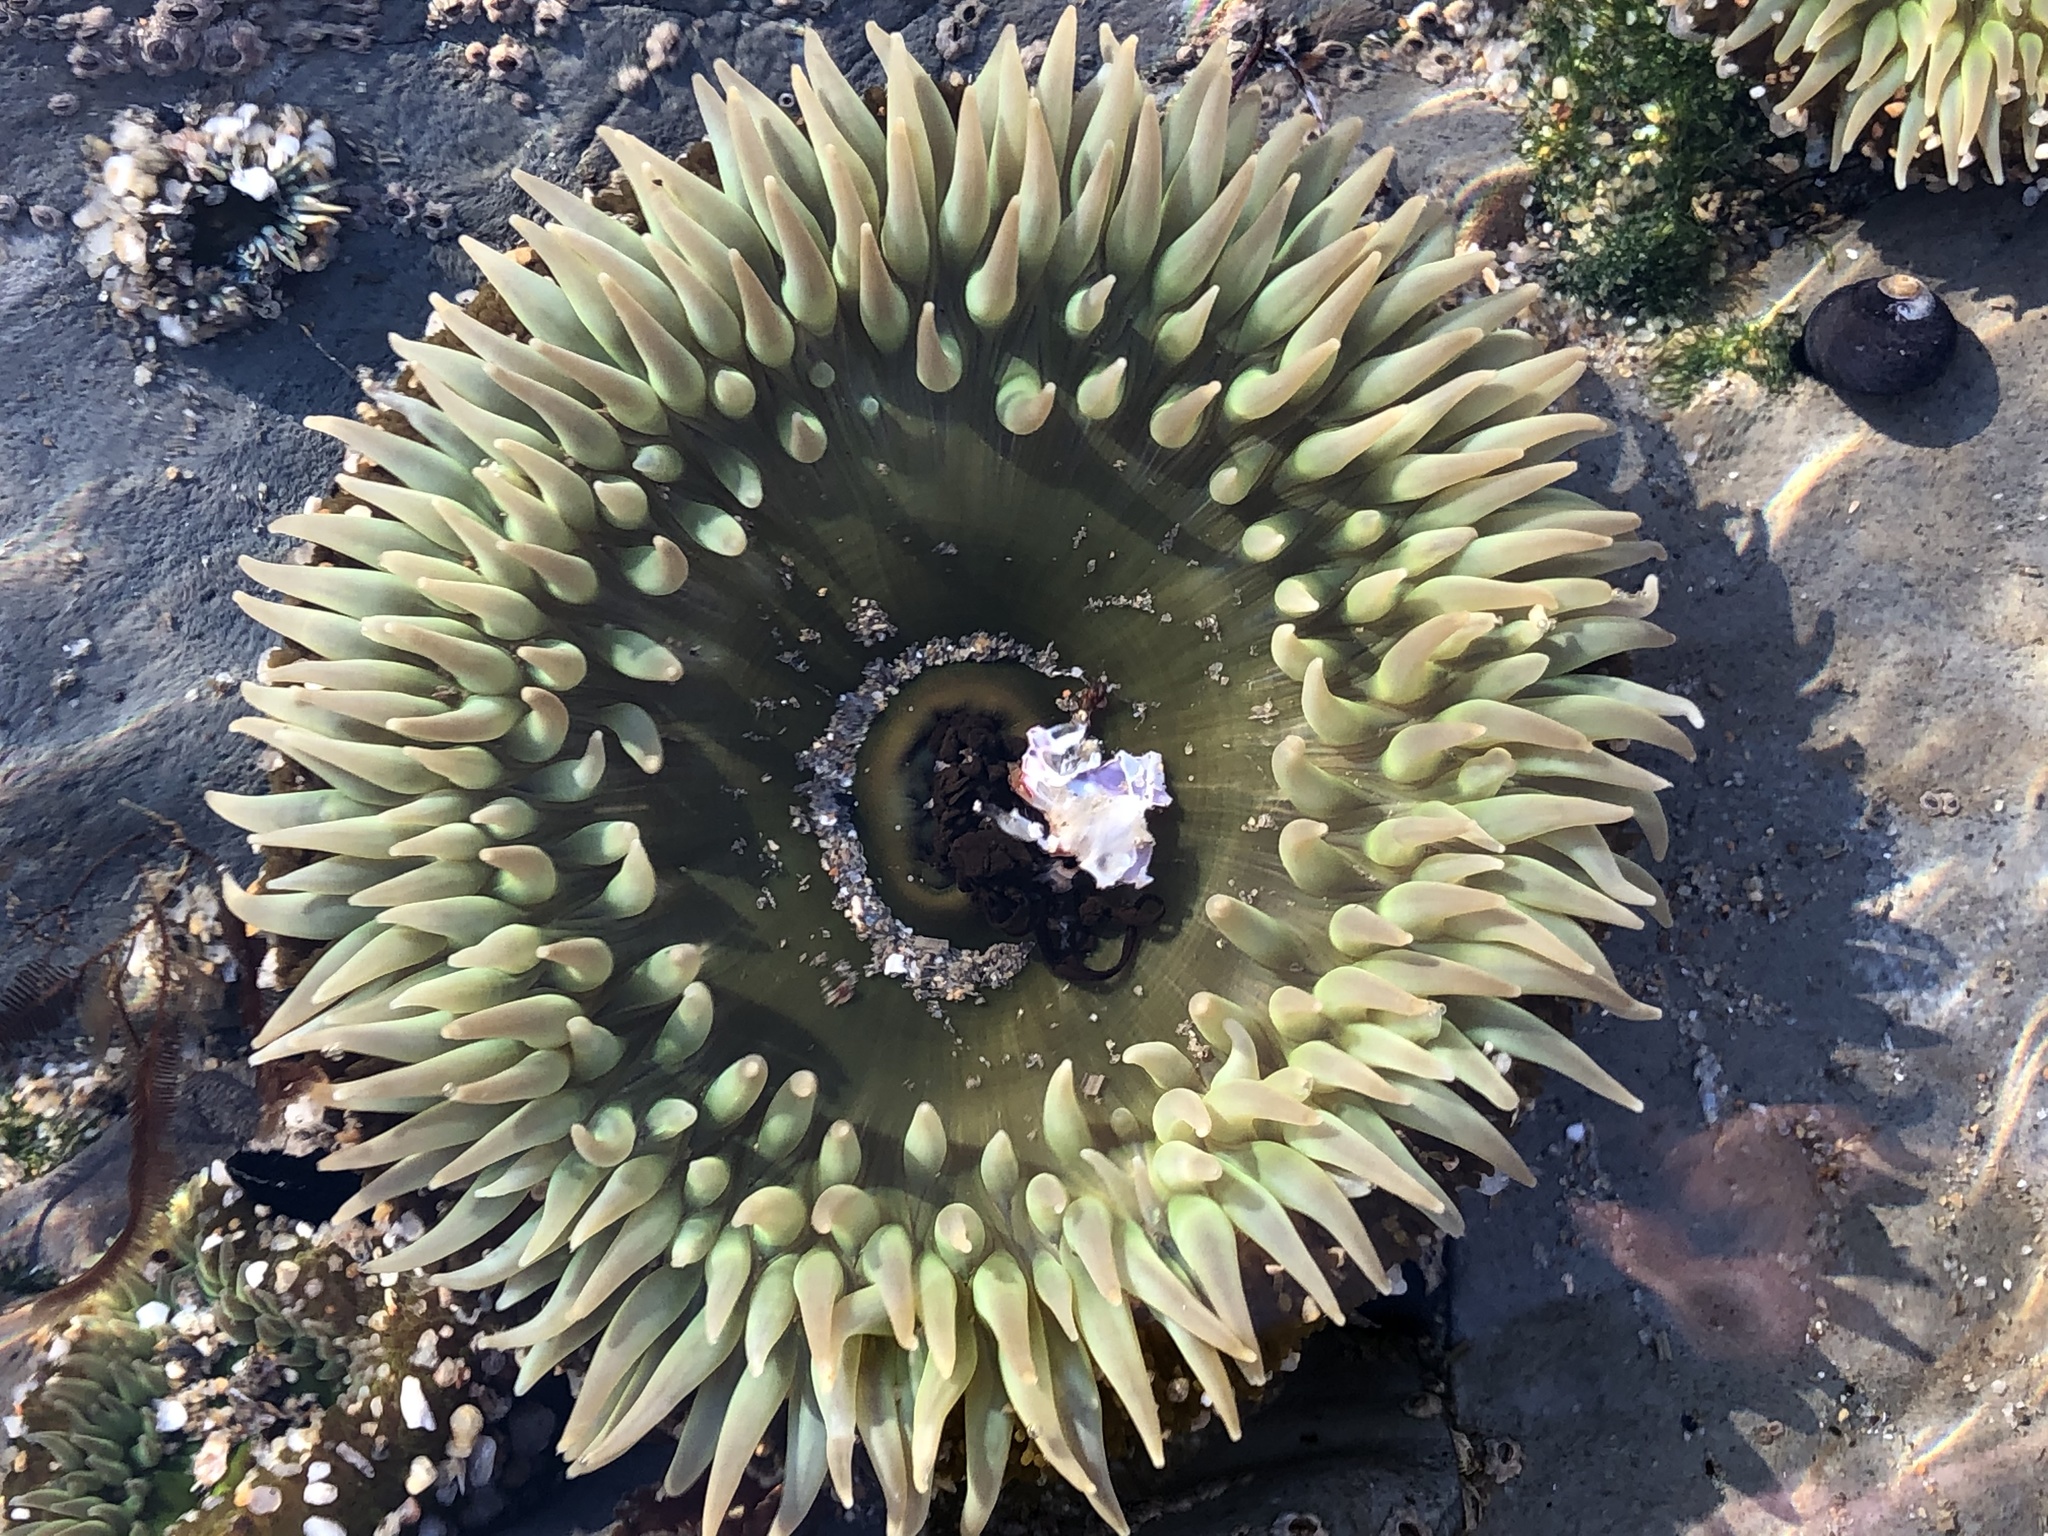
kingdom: Animalia
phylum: Cnidaria
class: Anthozoa
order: Actiniaria
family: Actiniidae
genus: Anthopleura
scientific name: Anthopleura xanthogrammica
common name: Giant green anemone
